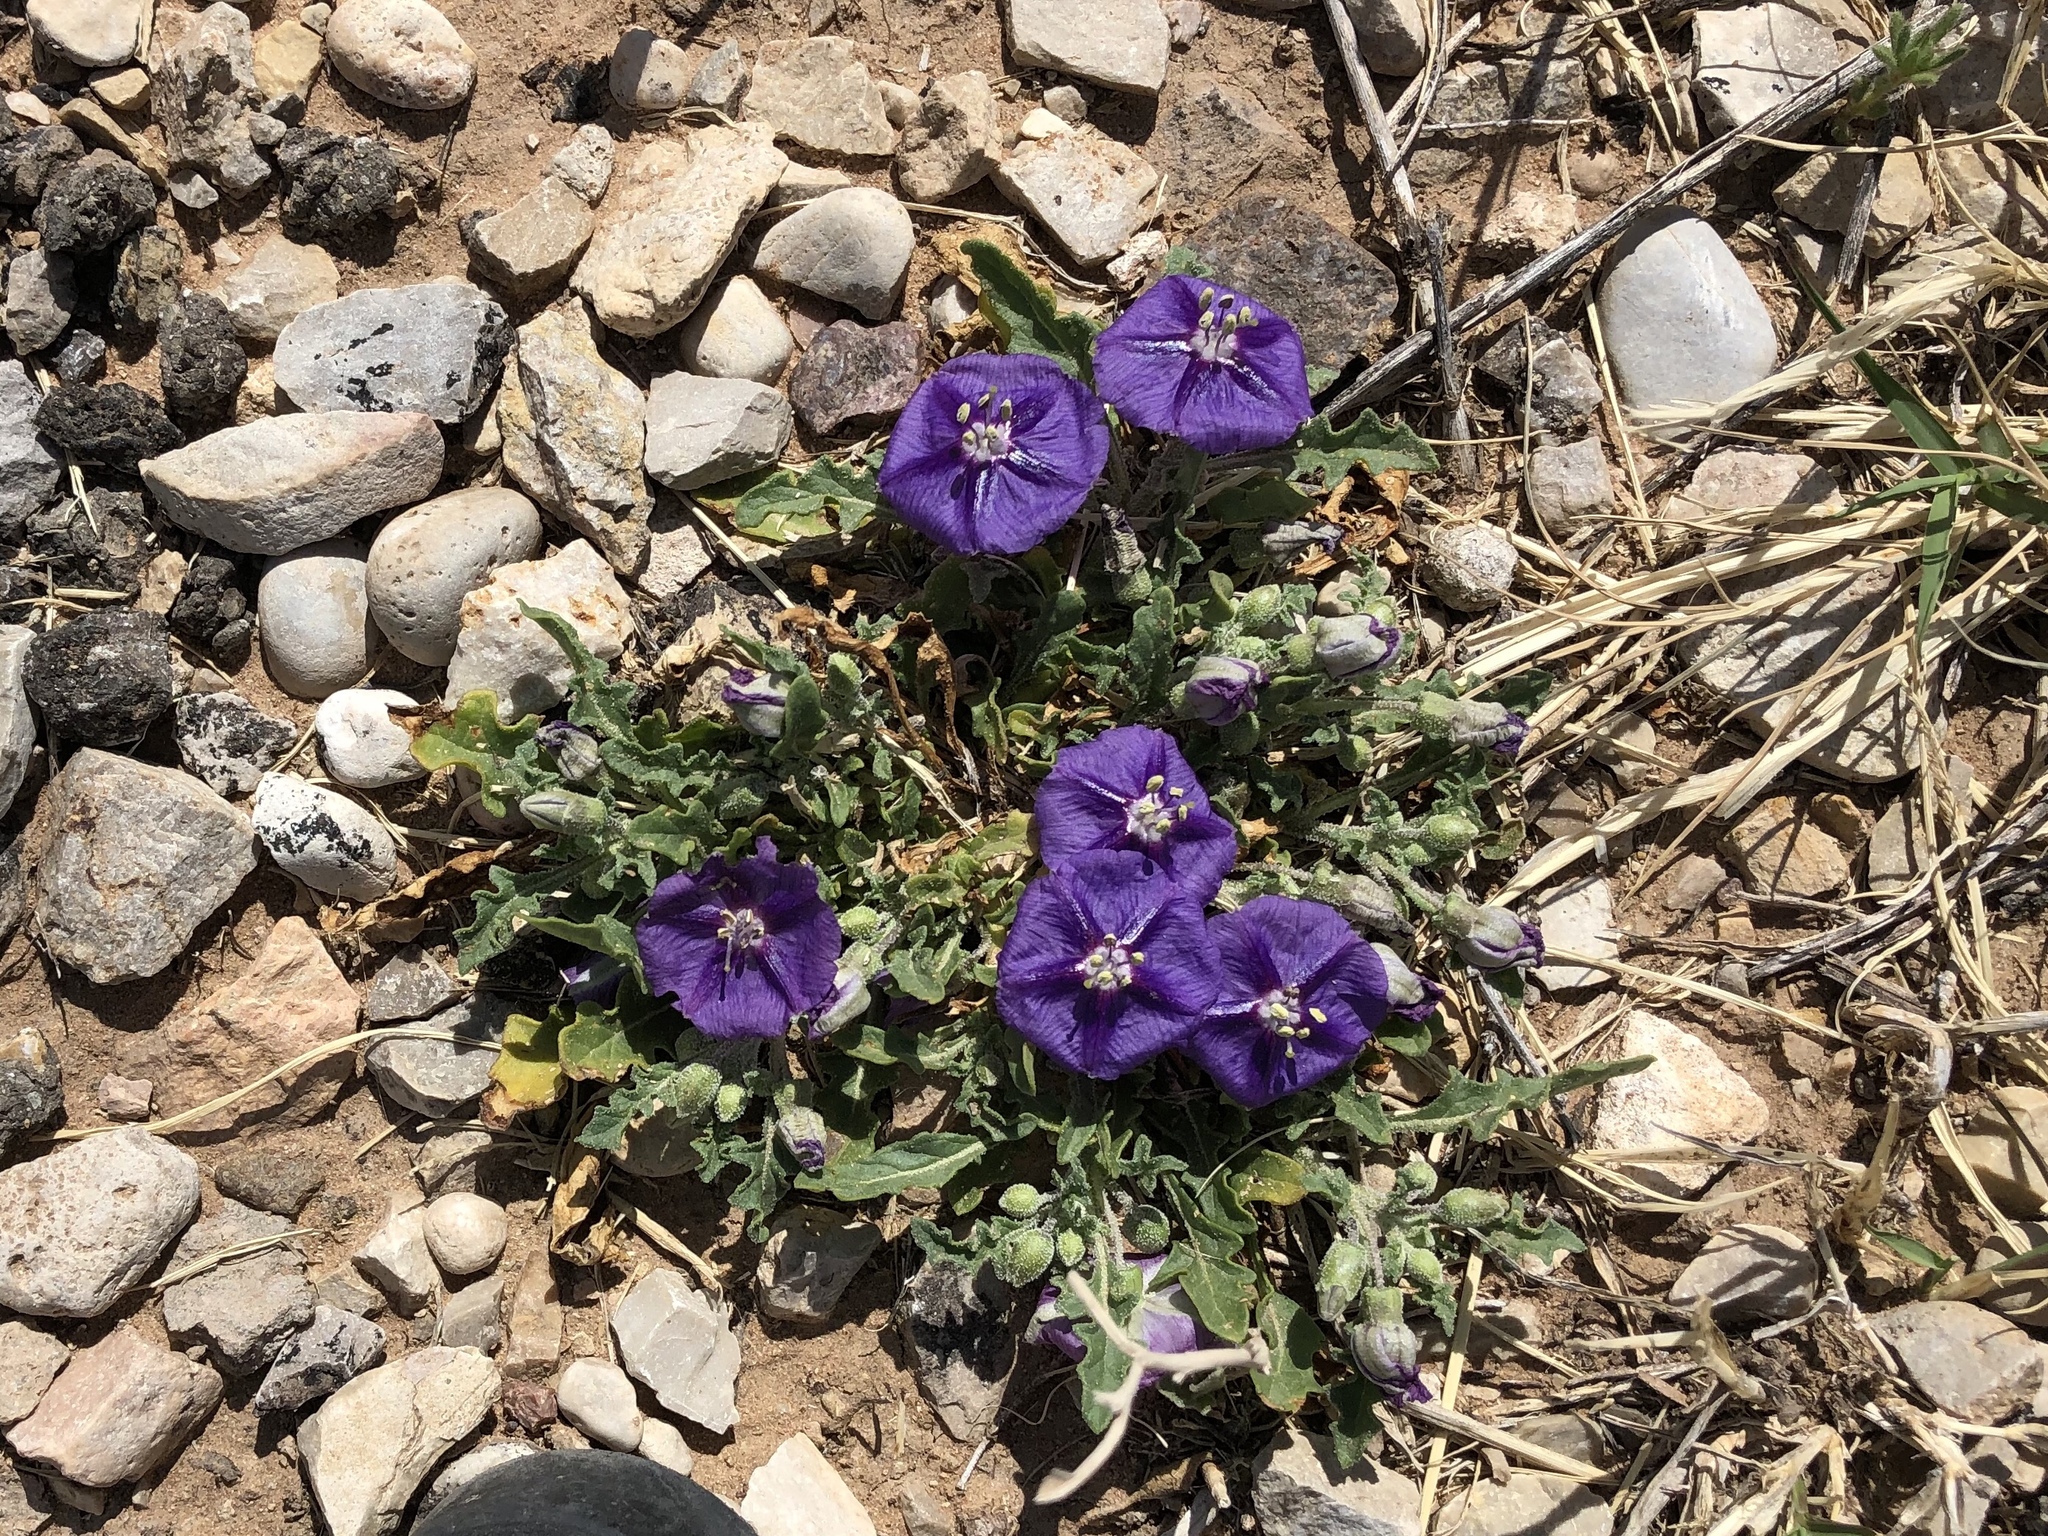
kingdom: Plantae
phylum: Tracheophyta
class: Magnoliopsida
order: Solanales
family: Solanaceae
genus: Quincula
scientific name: Quincula lobata
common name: Purple-ground-cherry
